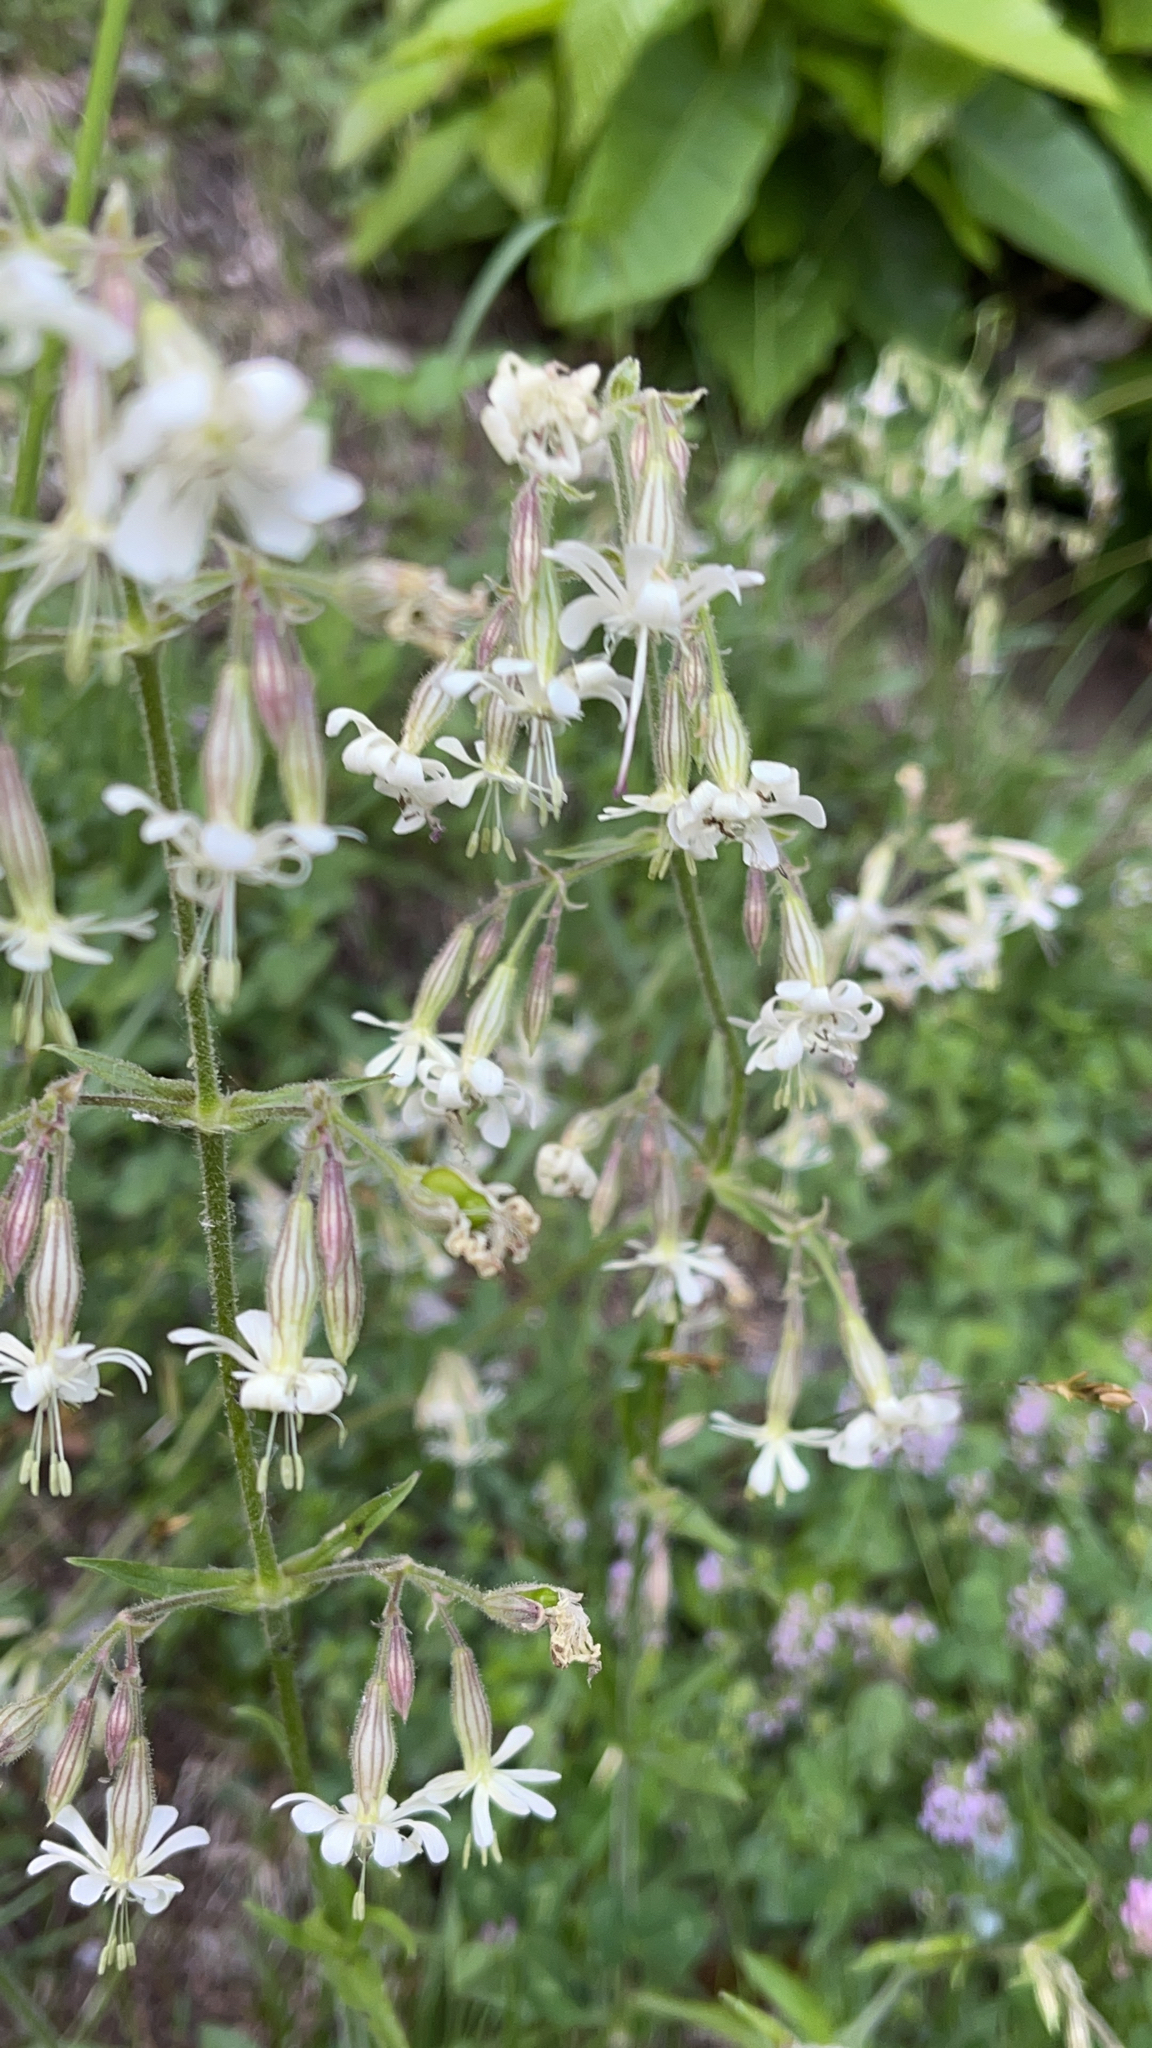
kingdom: Plantae
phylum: Tracheophyta
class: Magnoliopsida
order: Caryophyllales
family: Caryophyllaceae
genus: Silene
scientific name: Silene nutans
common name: Nottingham catchfly
